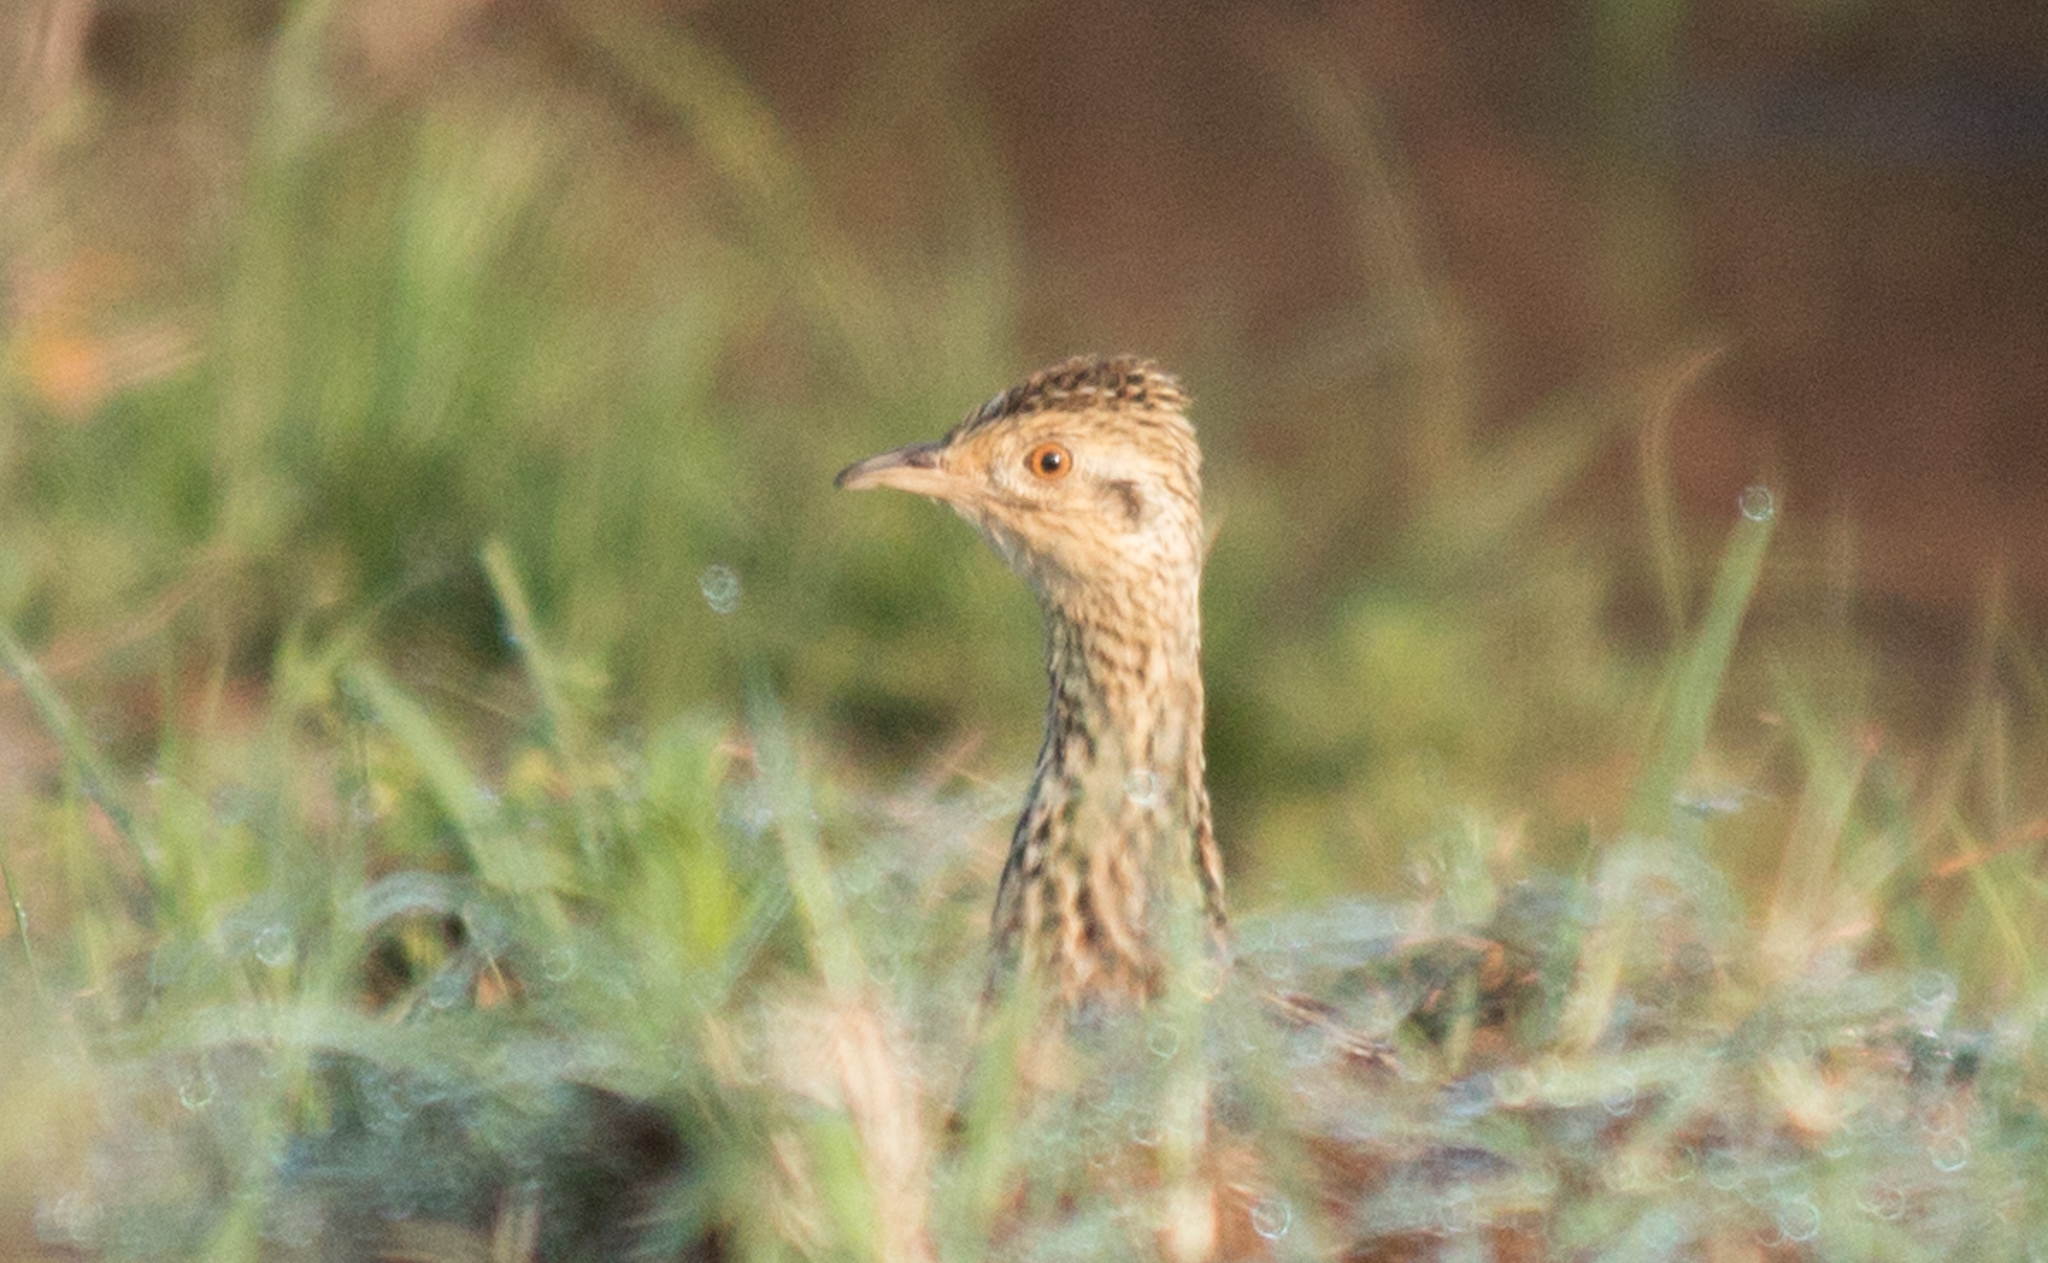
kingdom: Animalia
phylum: Chordata
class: Aves
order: Tinamiformes
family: Tinamidae
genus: Nothura
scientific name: Nothura maculosa
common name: Spotted nothura
